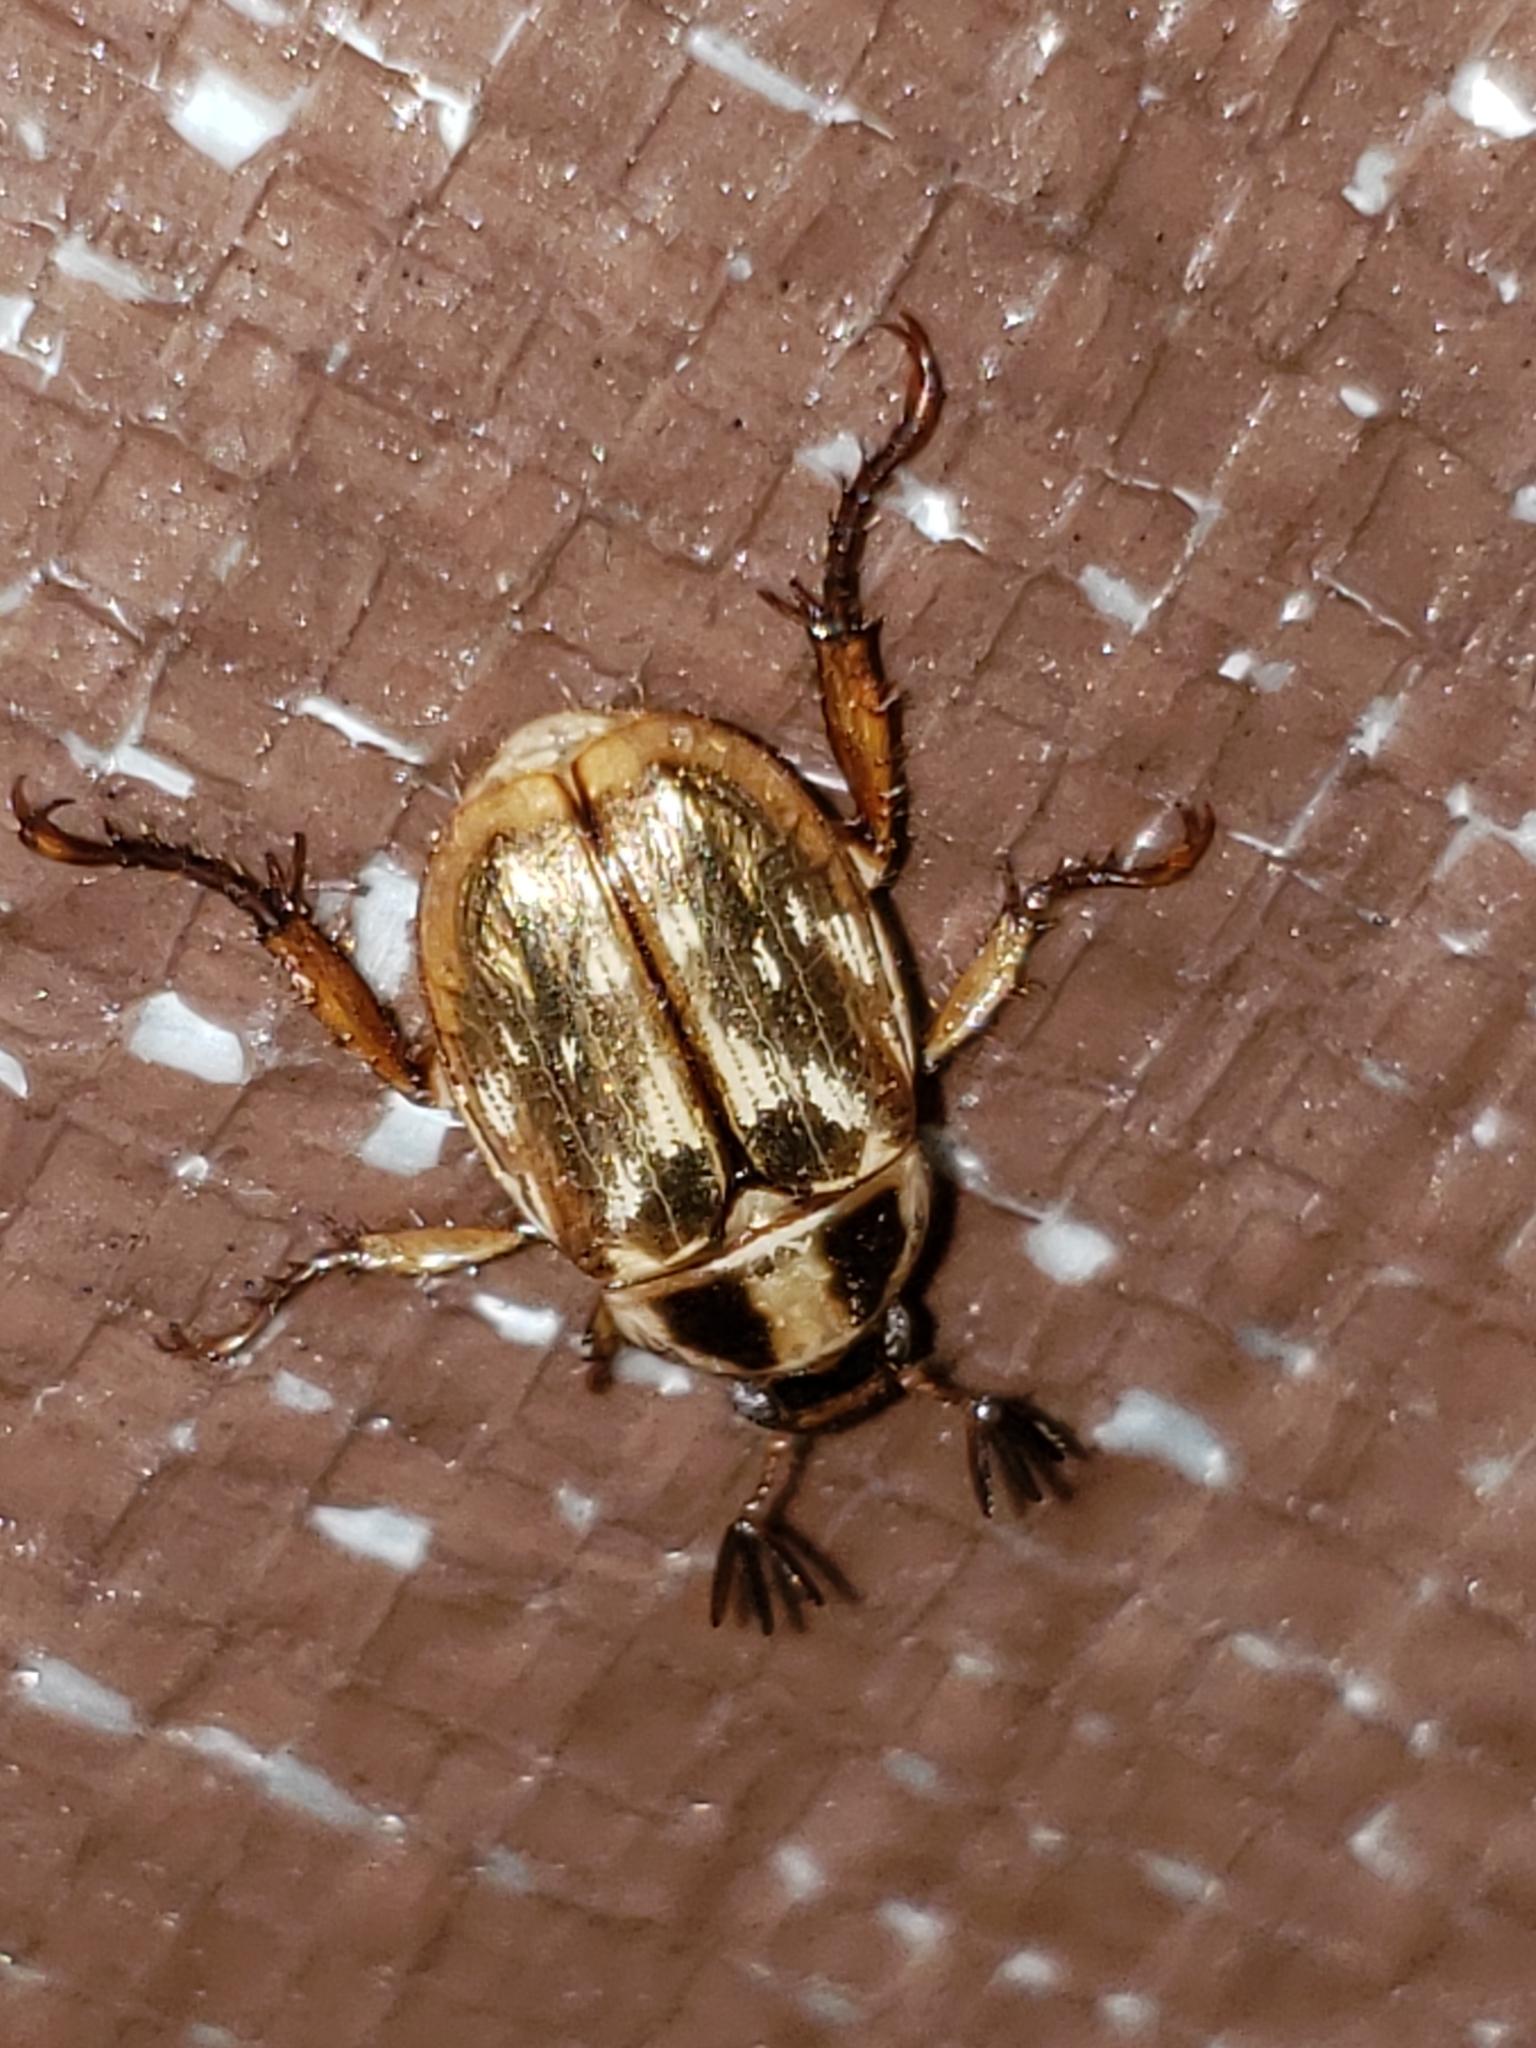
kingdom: Animalia
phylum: Arthropoda
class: Insecta
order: Coleoptera
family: Scarabaeidae
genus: Exomala
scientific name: Exomala orientalis
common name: Oriental beetle
